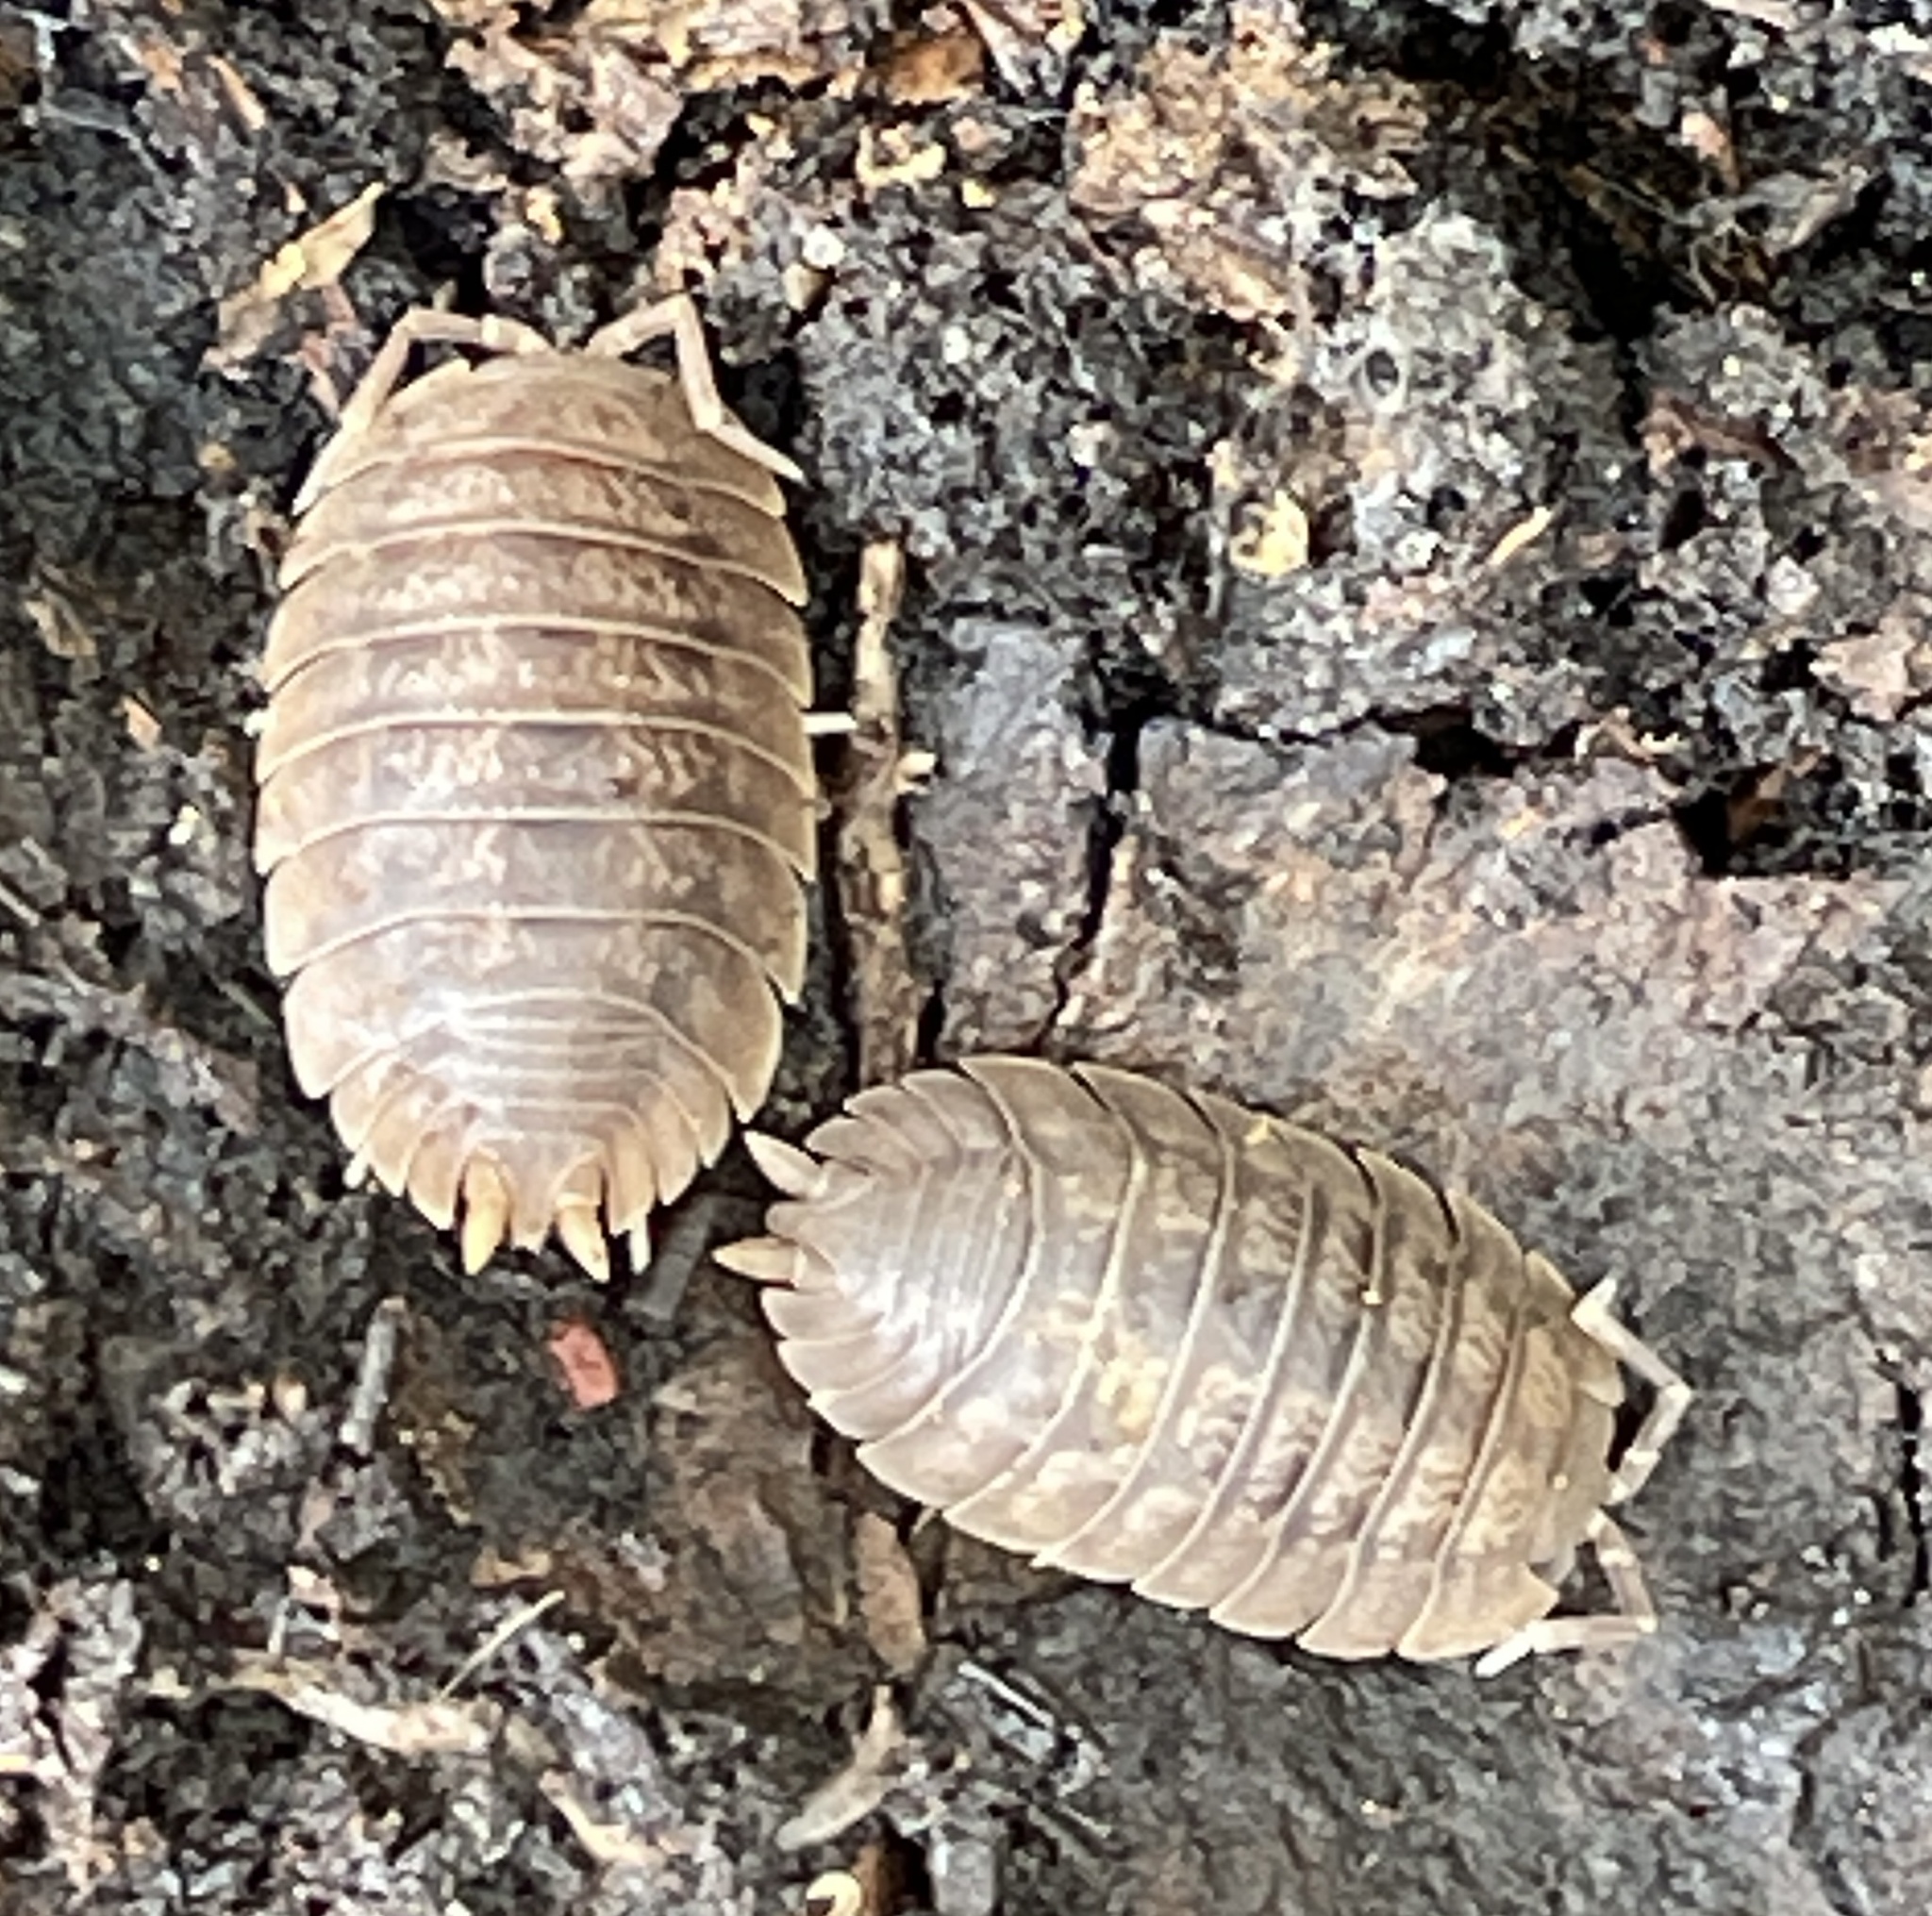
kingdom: Animalia
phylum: Arthropoda
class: Malacostraca
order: Isopoda
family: Porcellionidae
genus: Porcellio
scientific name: Porcellio dilatatus
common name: Isopod
